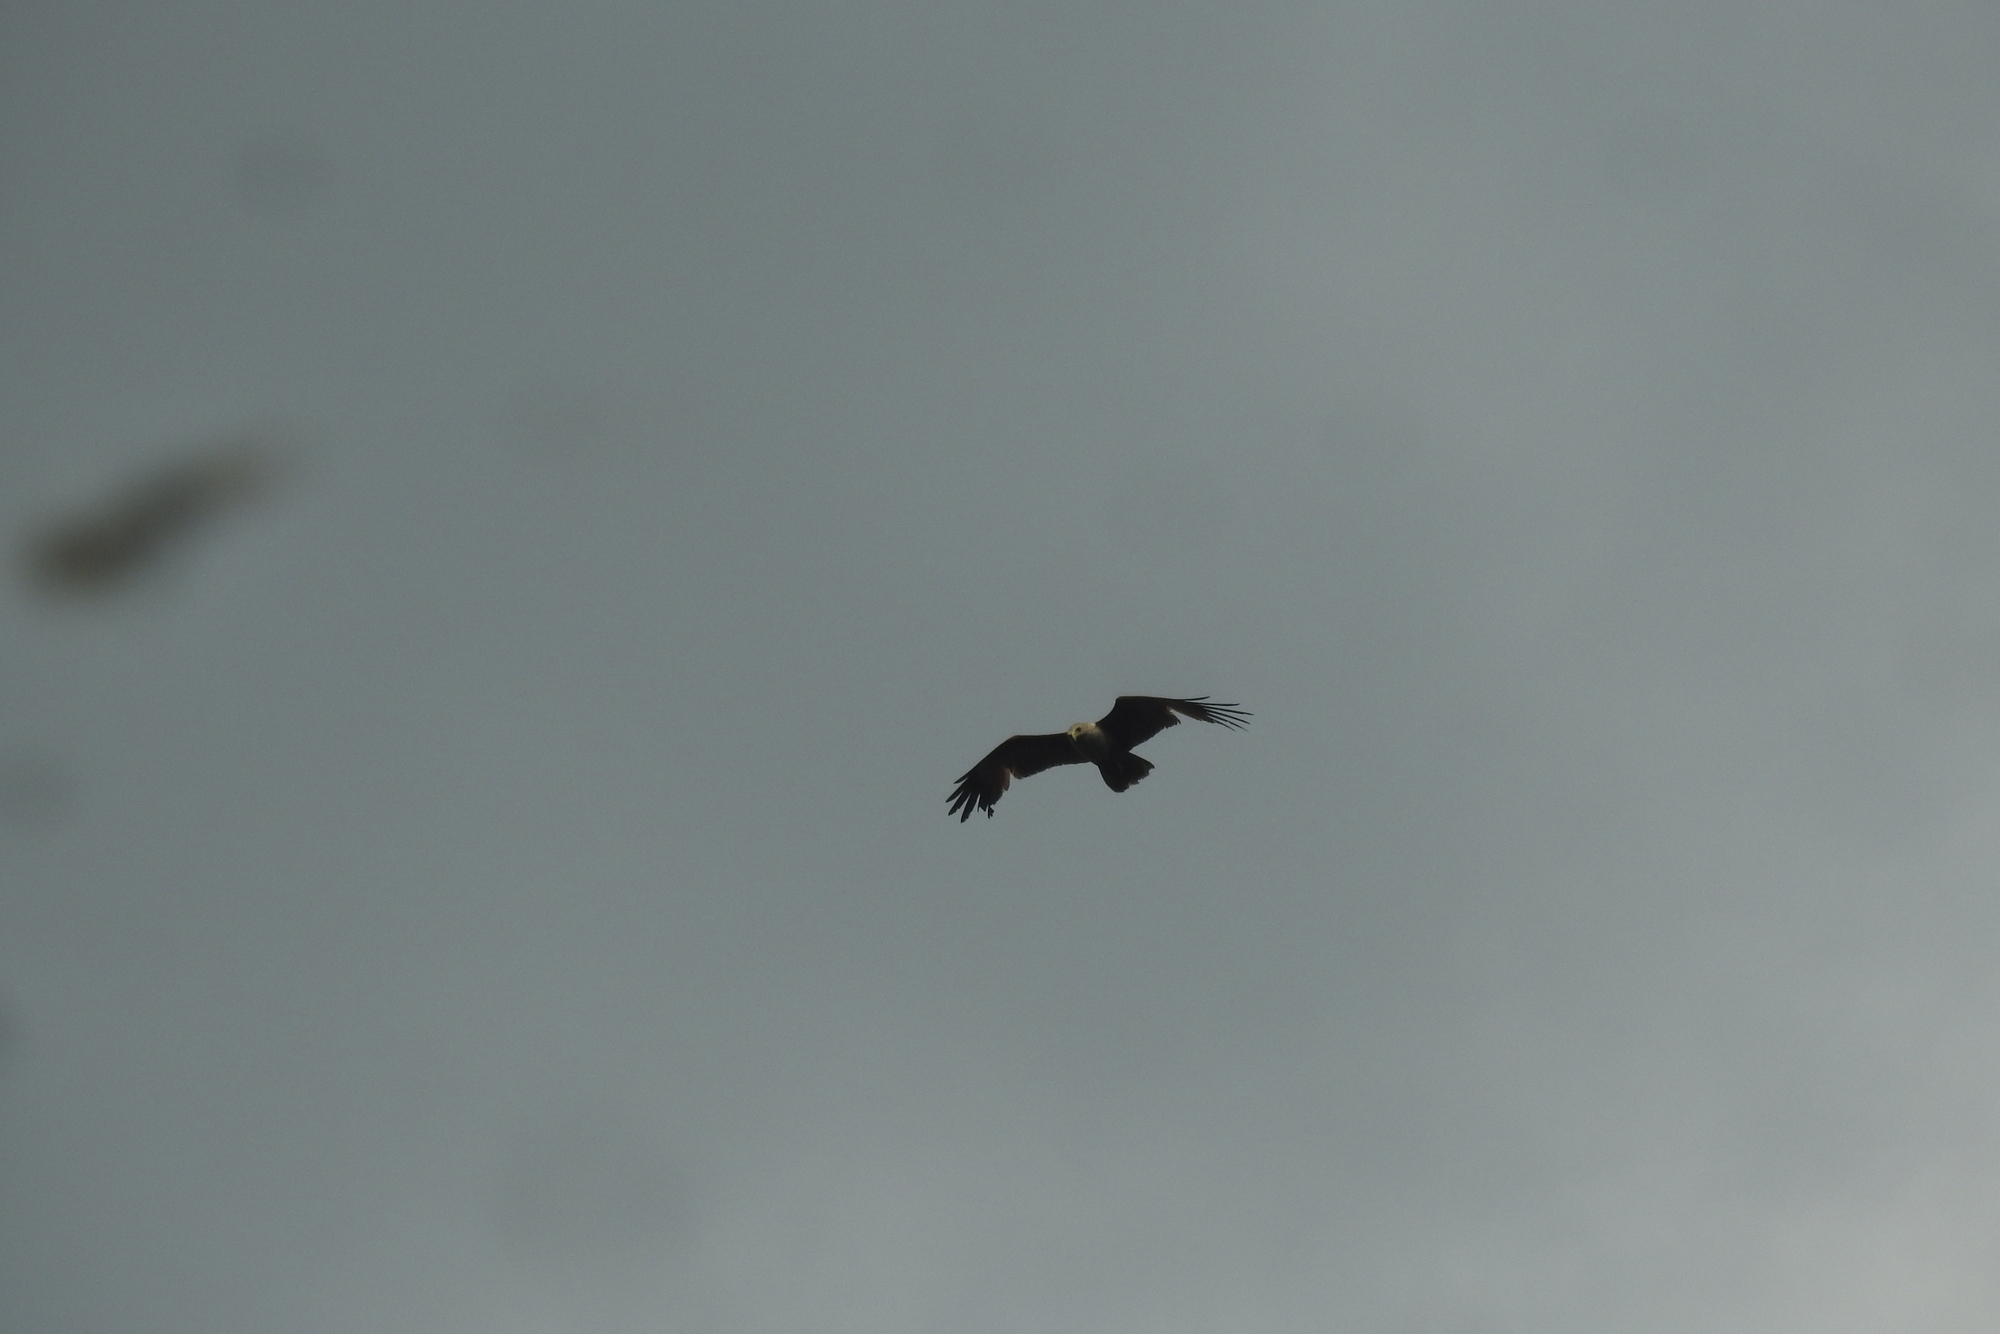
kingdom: Animalia
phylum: Chordata
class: Aves
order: Accipitriformes
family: Accipitridae
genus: Haliastur
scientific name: Haliastur indus
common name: Brahminy kite
